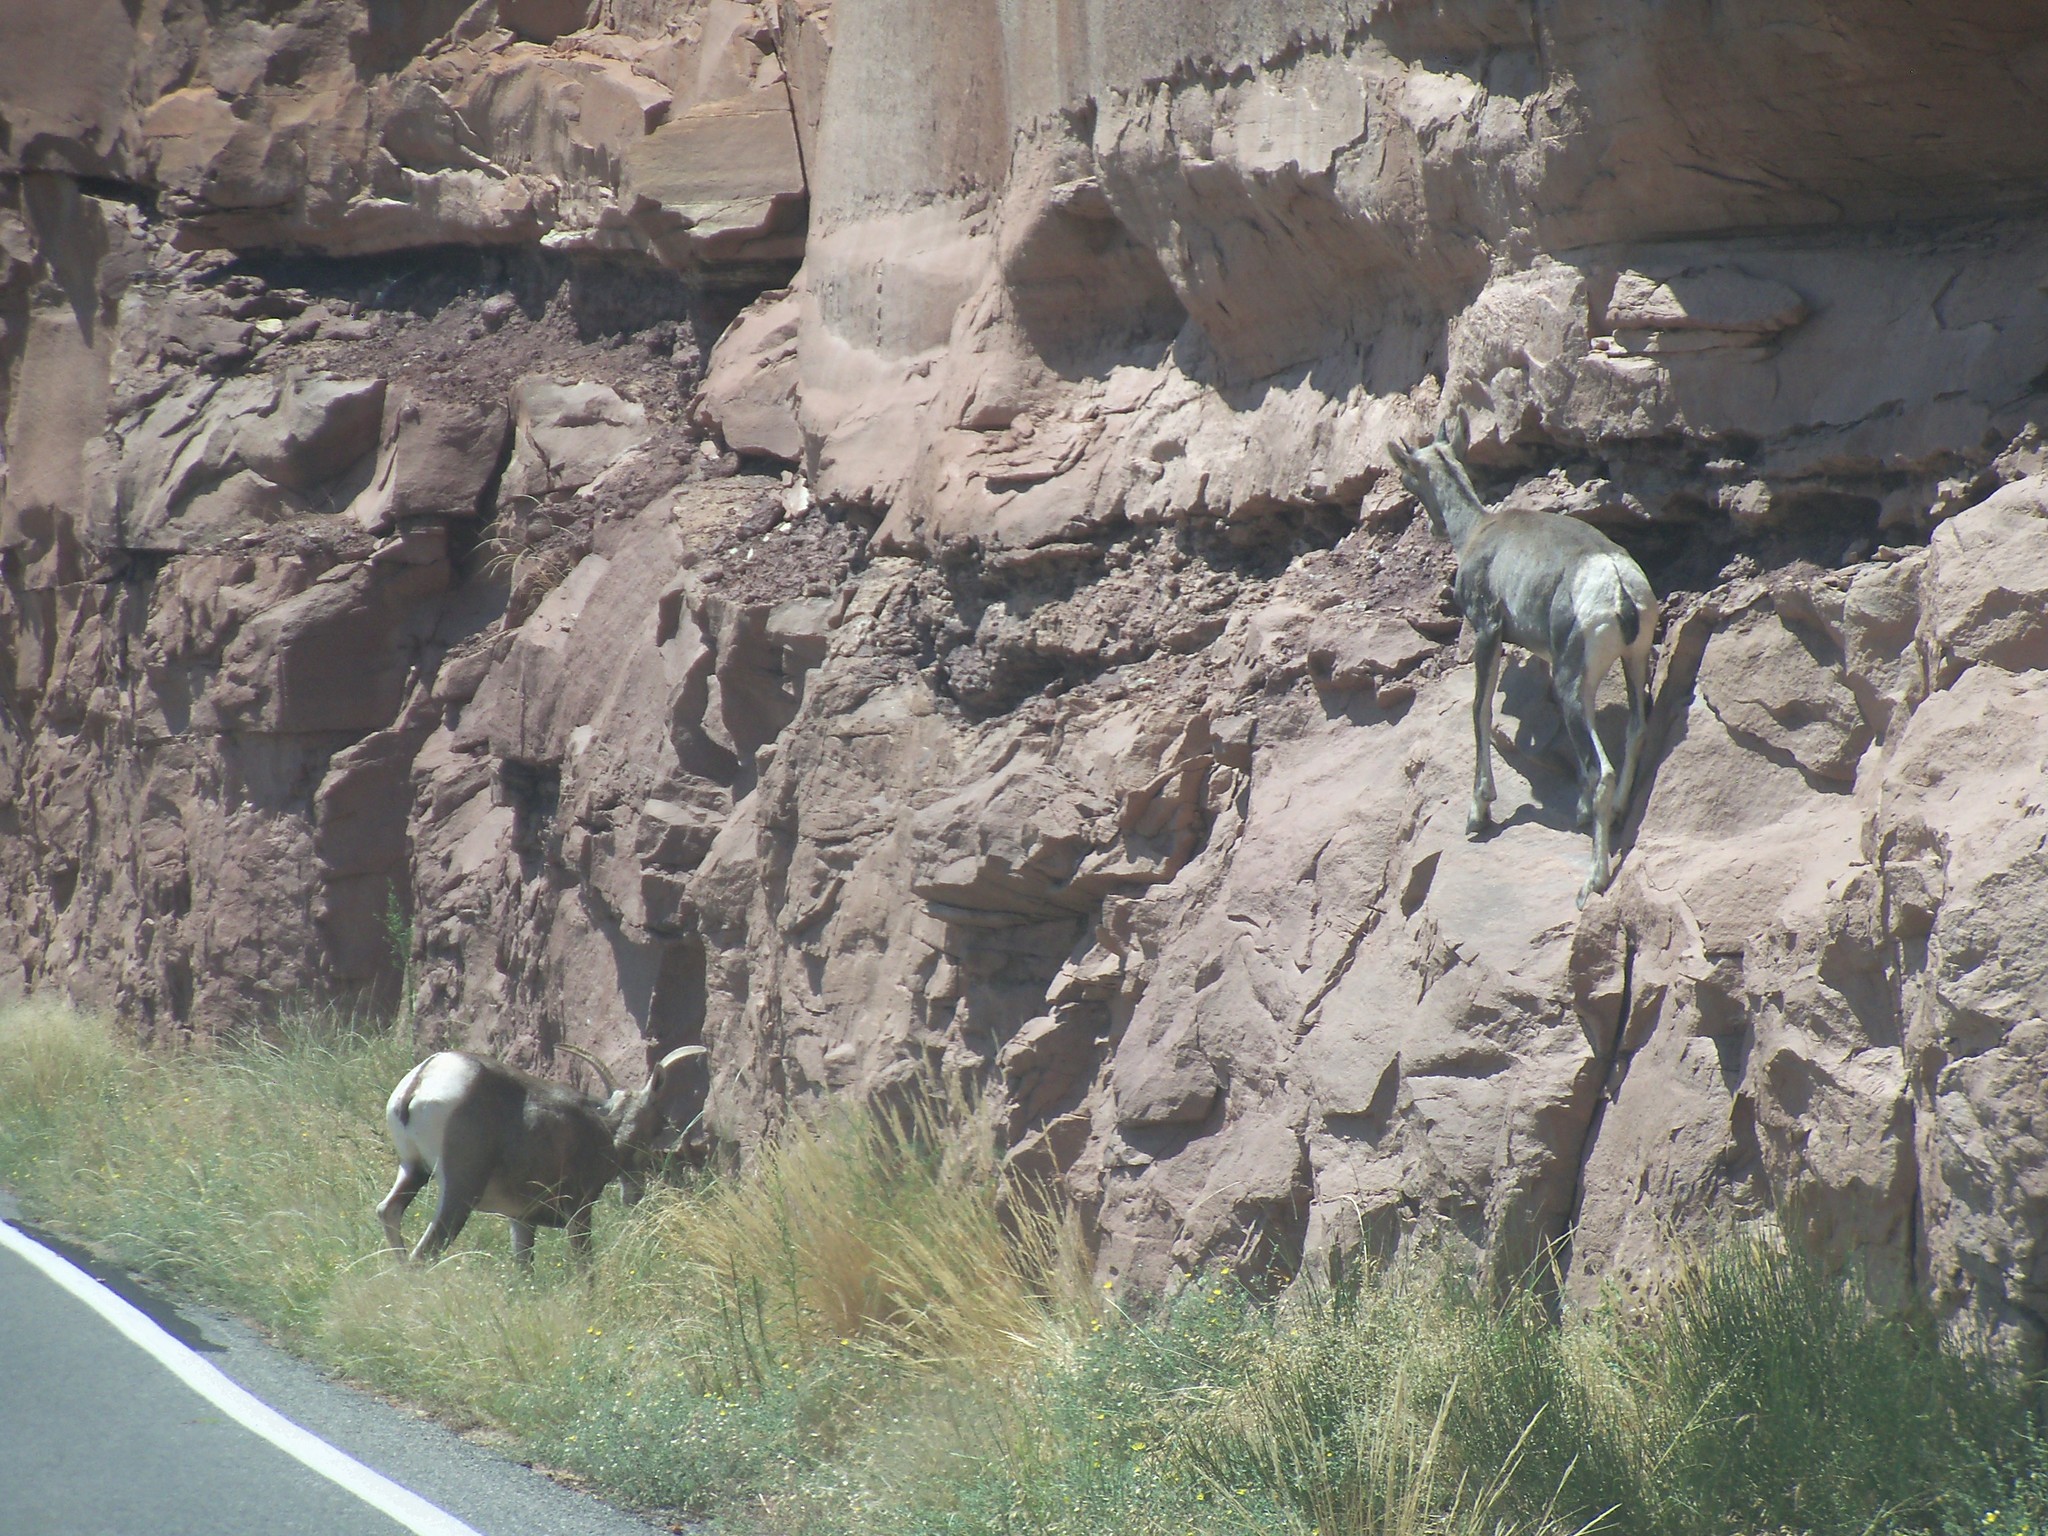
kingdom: Animalia
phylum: Chordata
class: Mammalia
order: Artiodactyla
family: Bovidae
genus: Ovis
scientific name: Ovis canadensis
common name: Bighorn sheep
